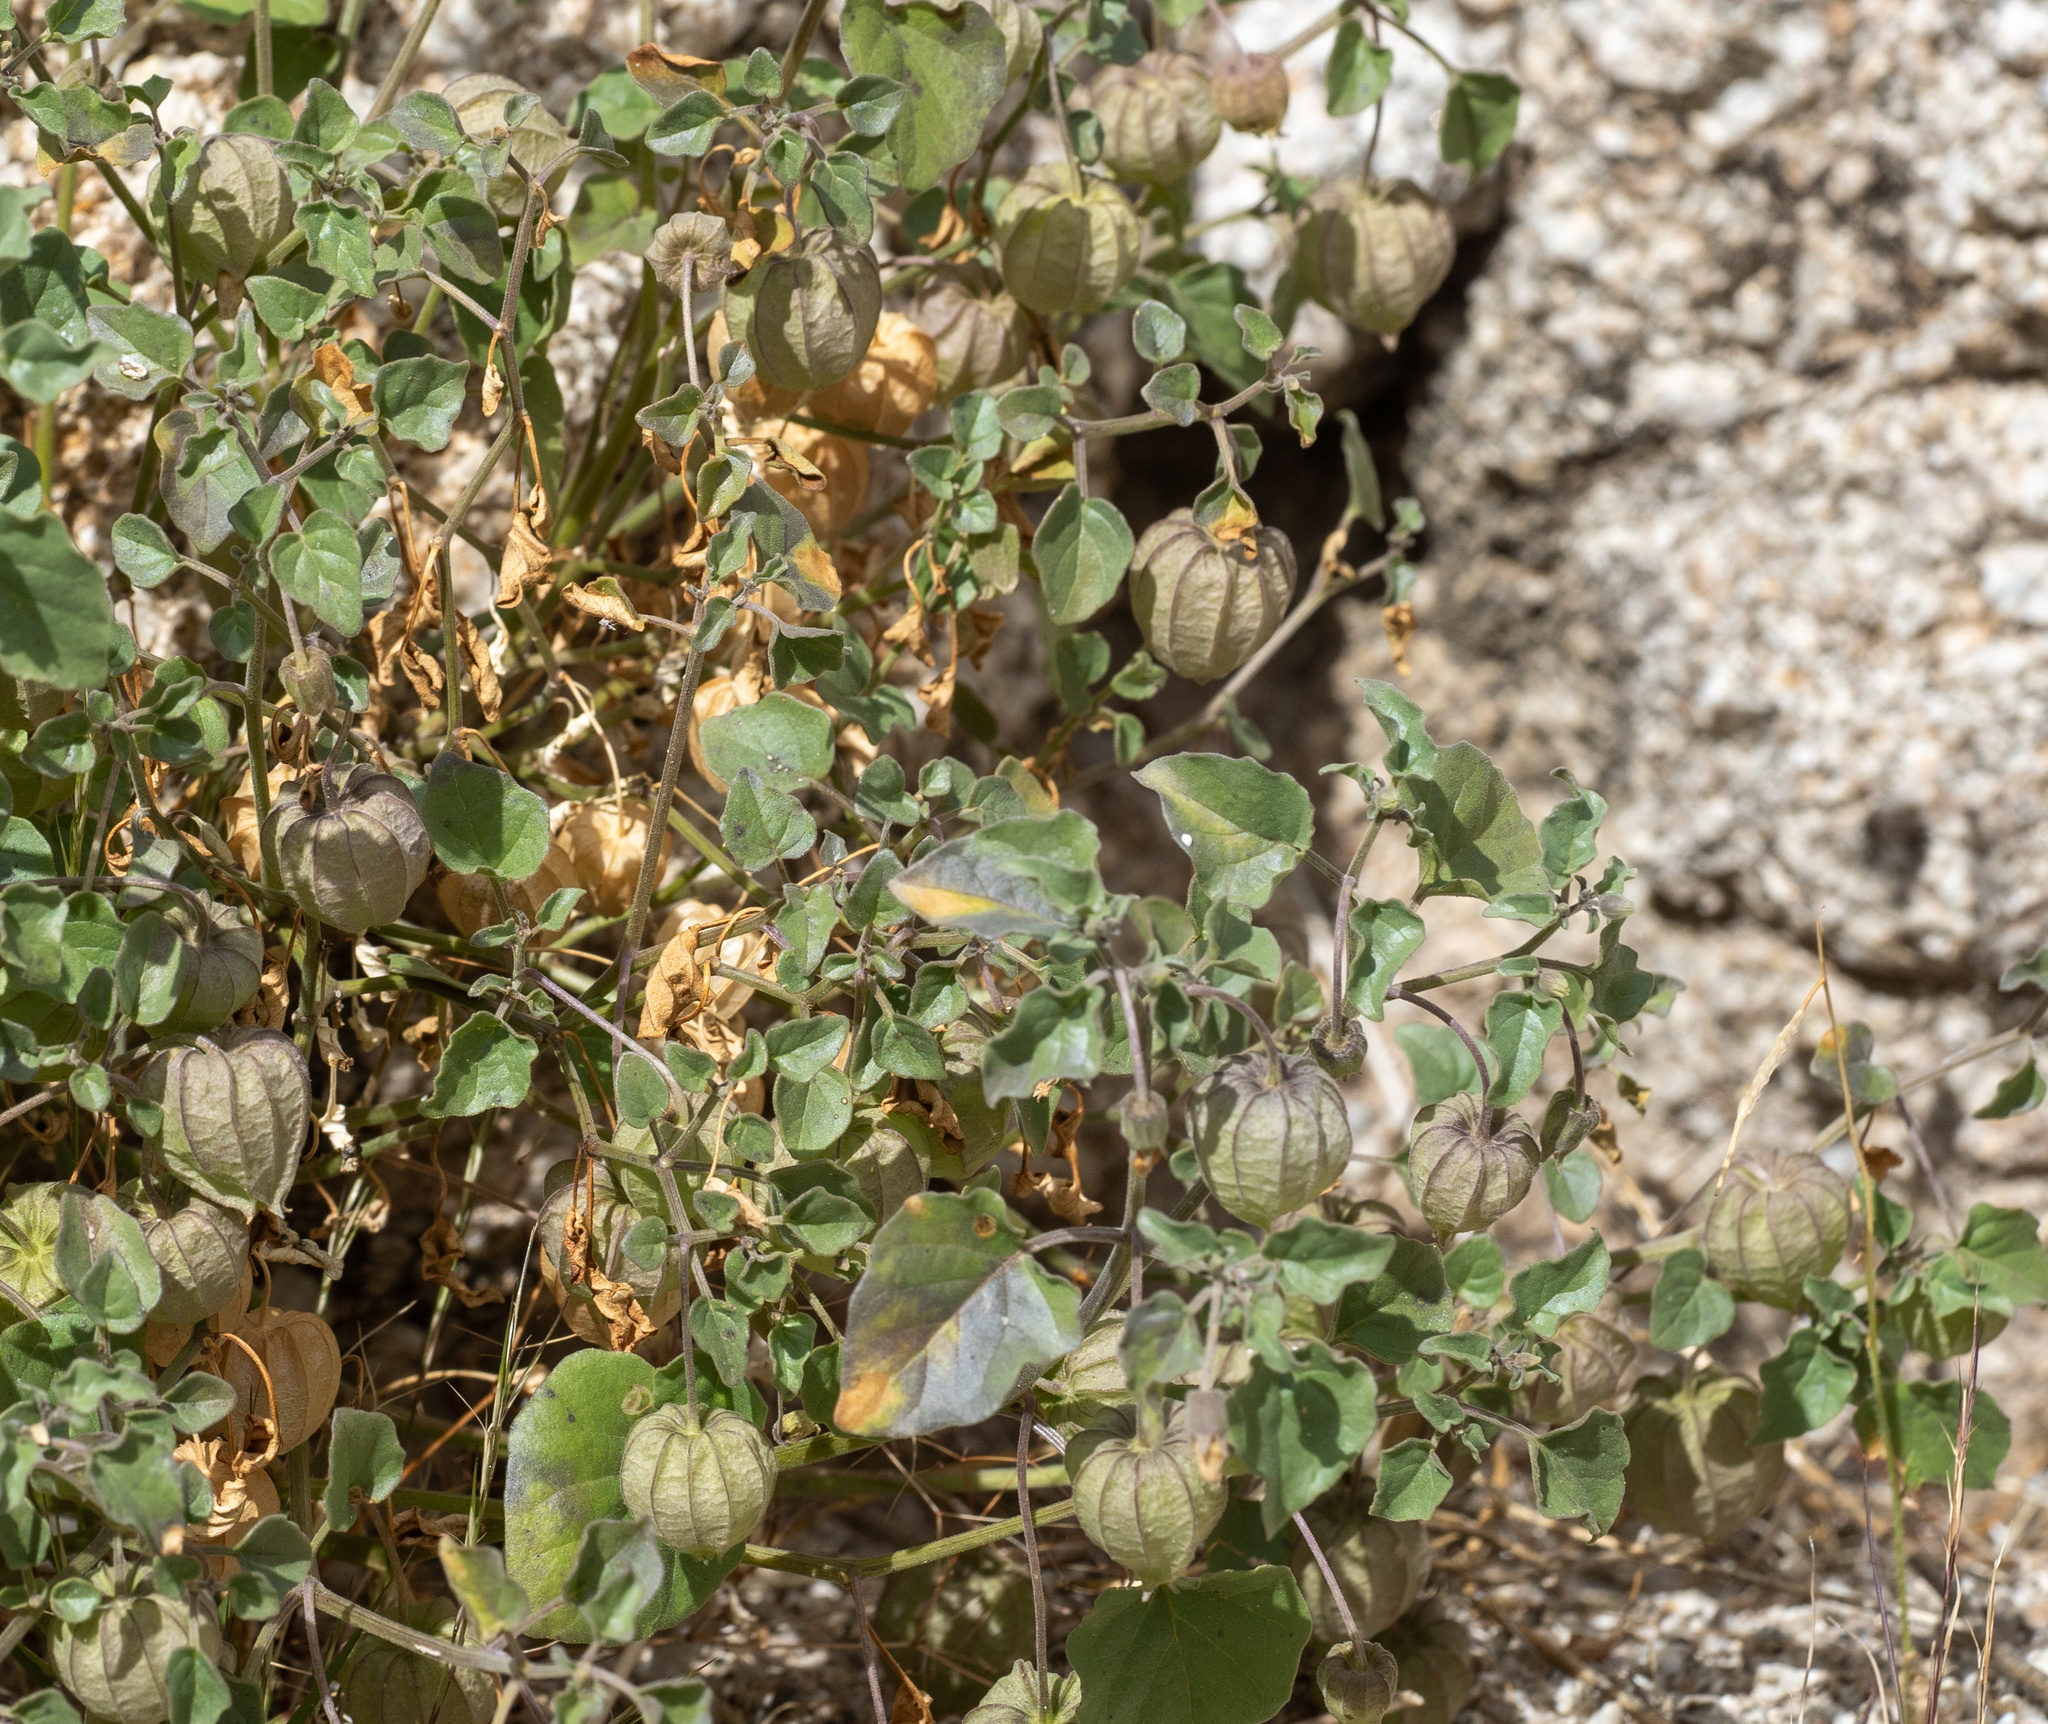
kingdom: Plantae
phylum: Tracheophyta
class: Magnoliopsida
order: Solanales
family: Solanaceae
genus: Physalis
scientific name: Physalis crassifolia
